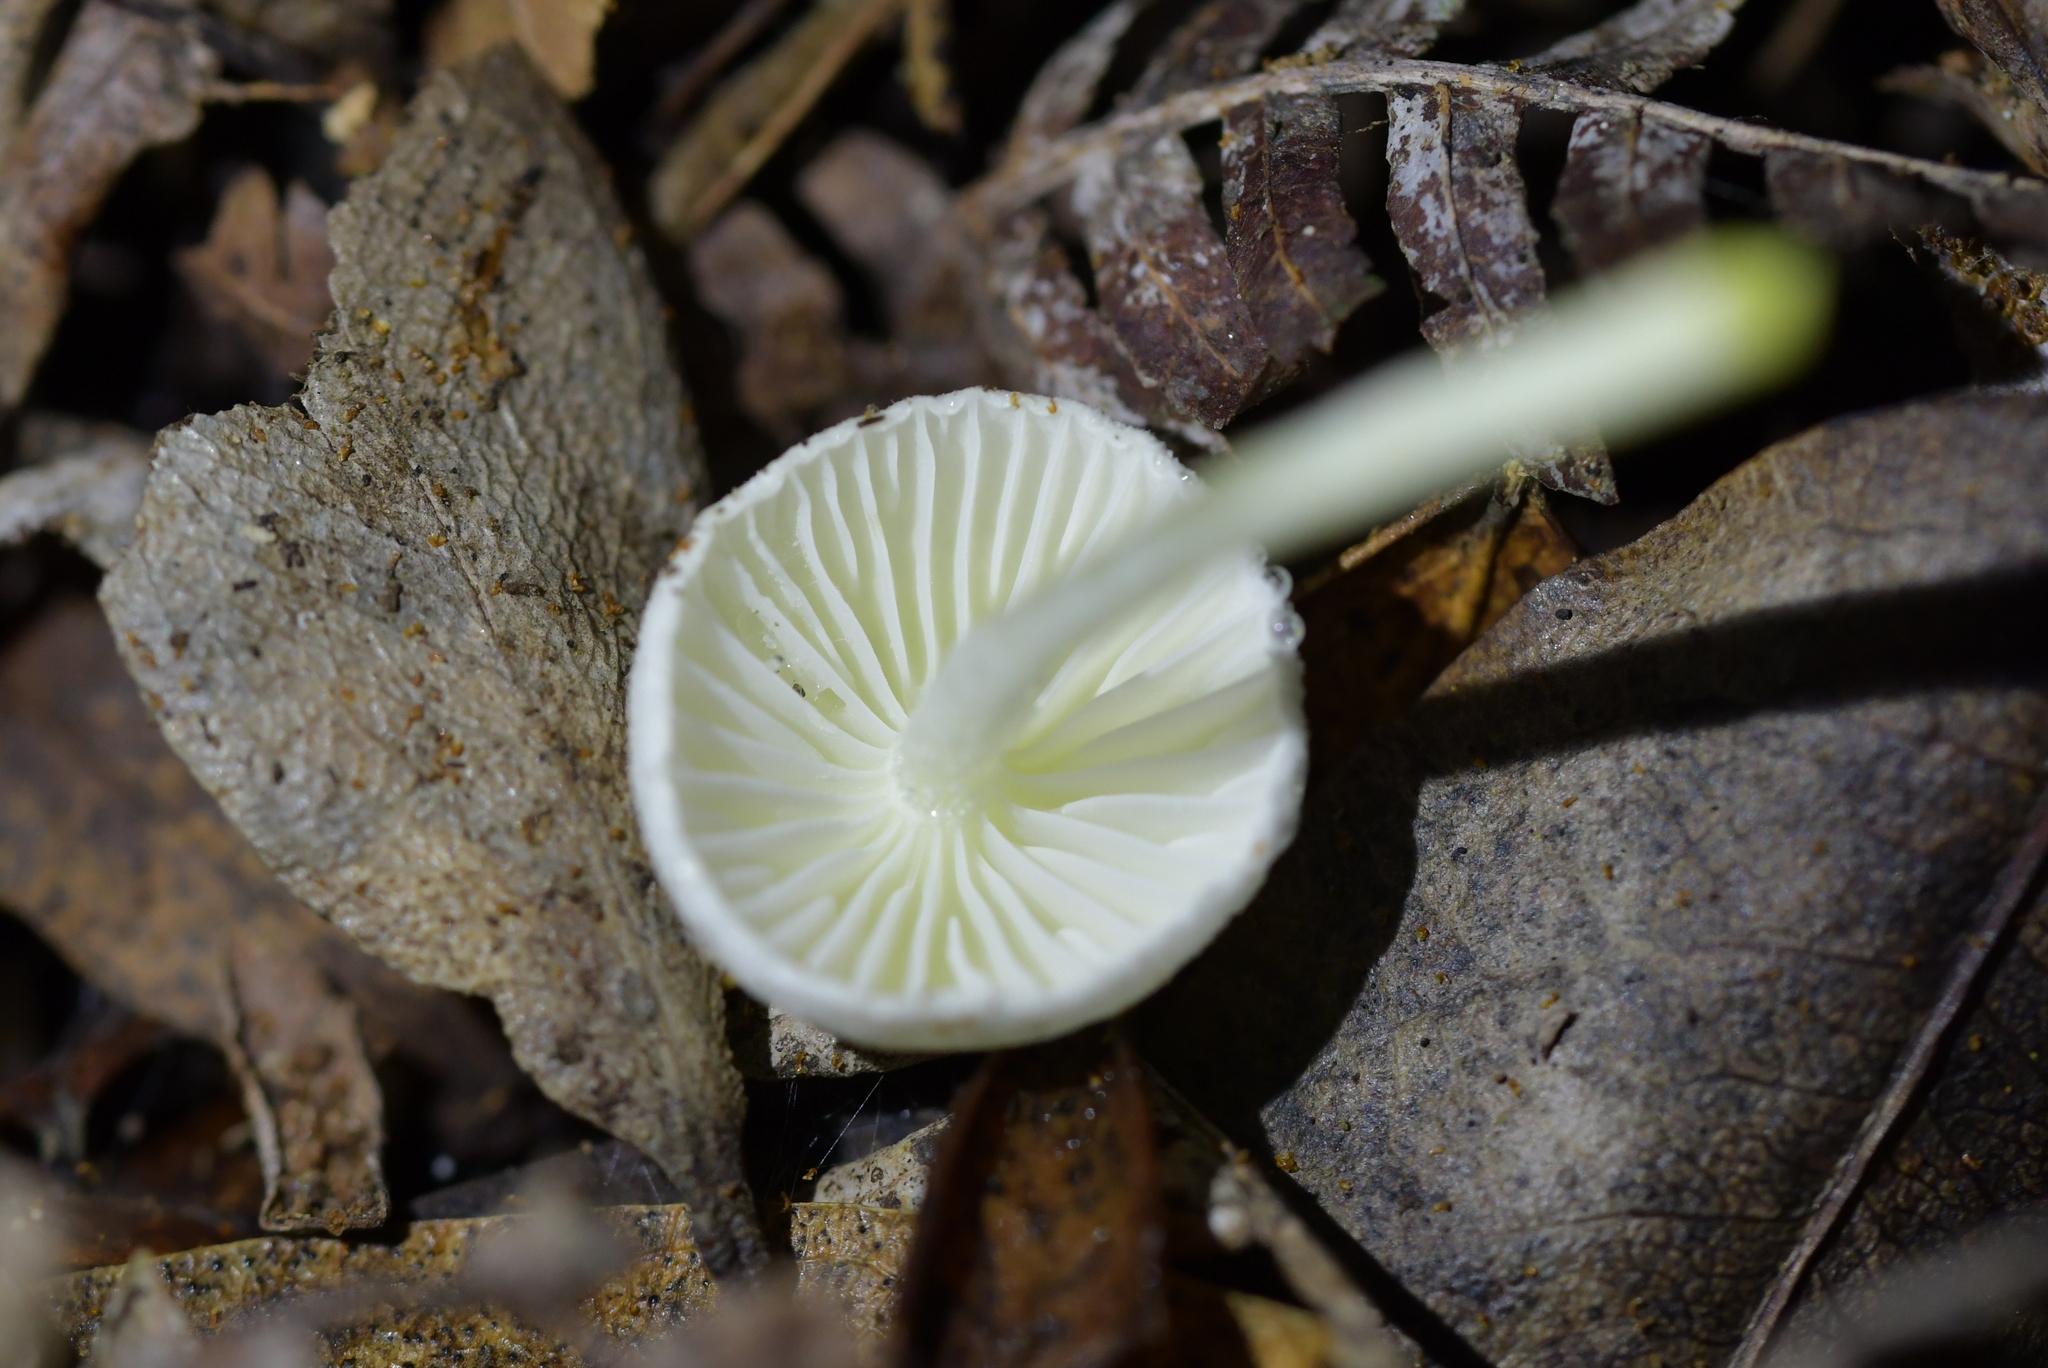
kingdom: Fungi
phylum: Basidiomycota
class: Agaricomycetes
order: Agaricales
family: Hygrophoraceae
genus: Hygrophorus
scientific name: Hygrophorus involutus
